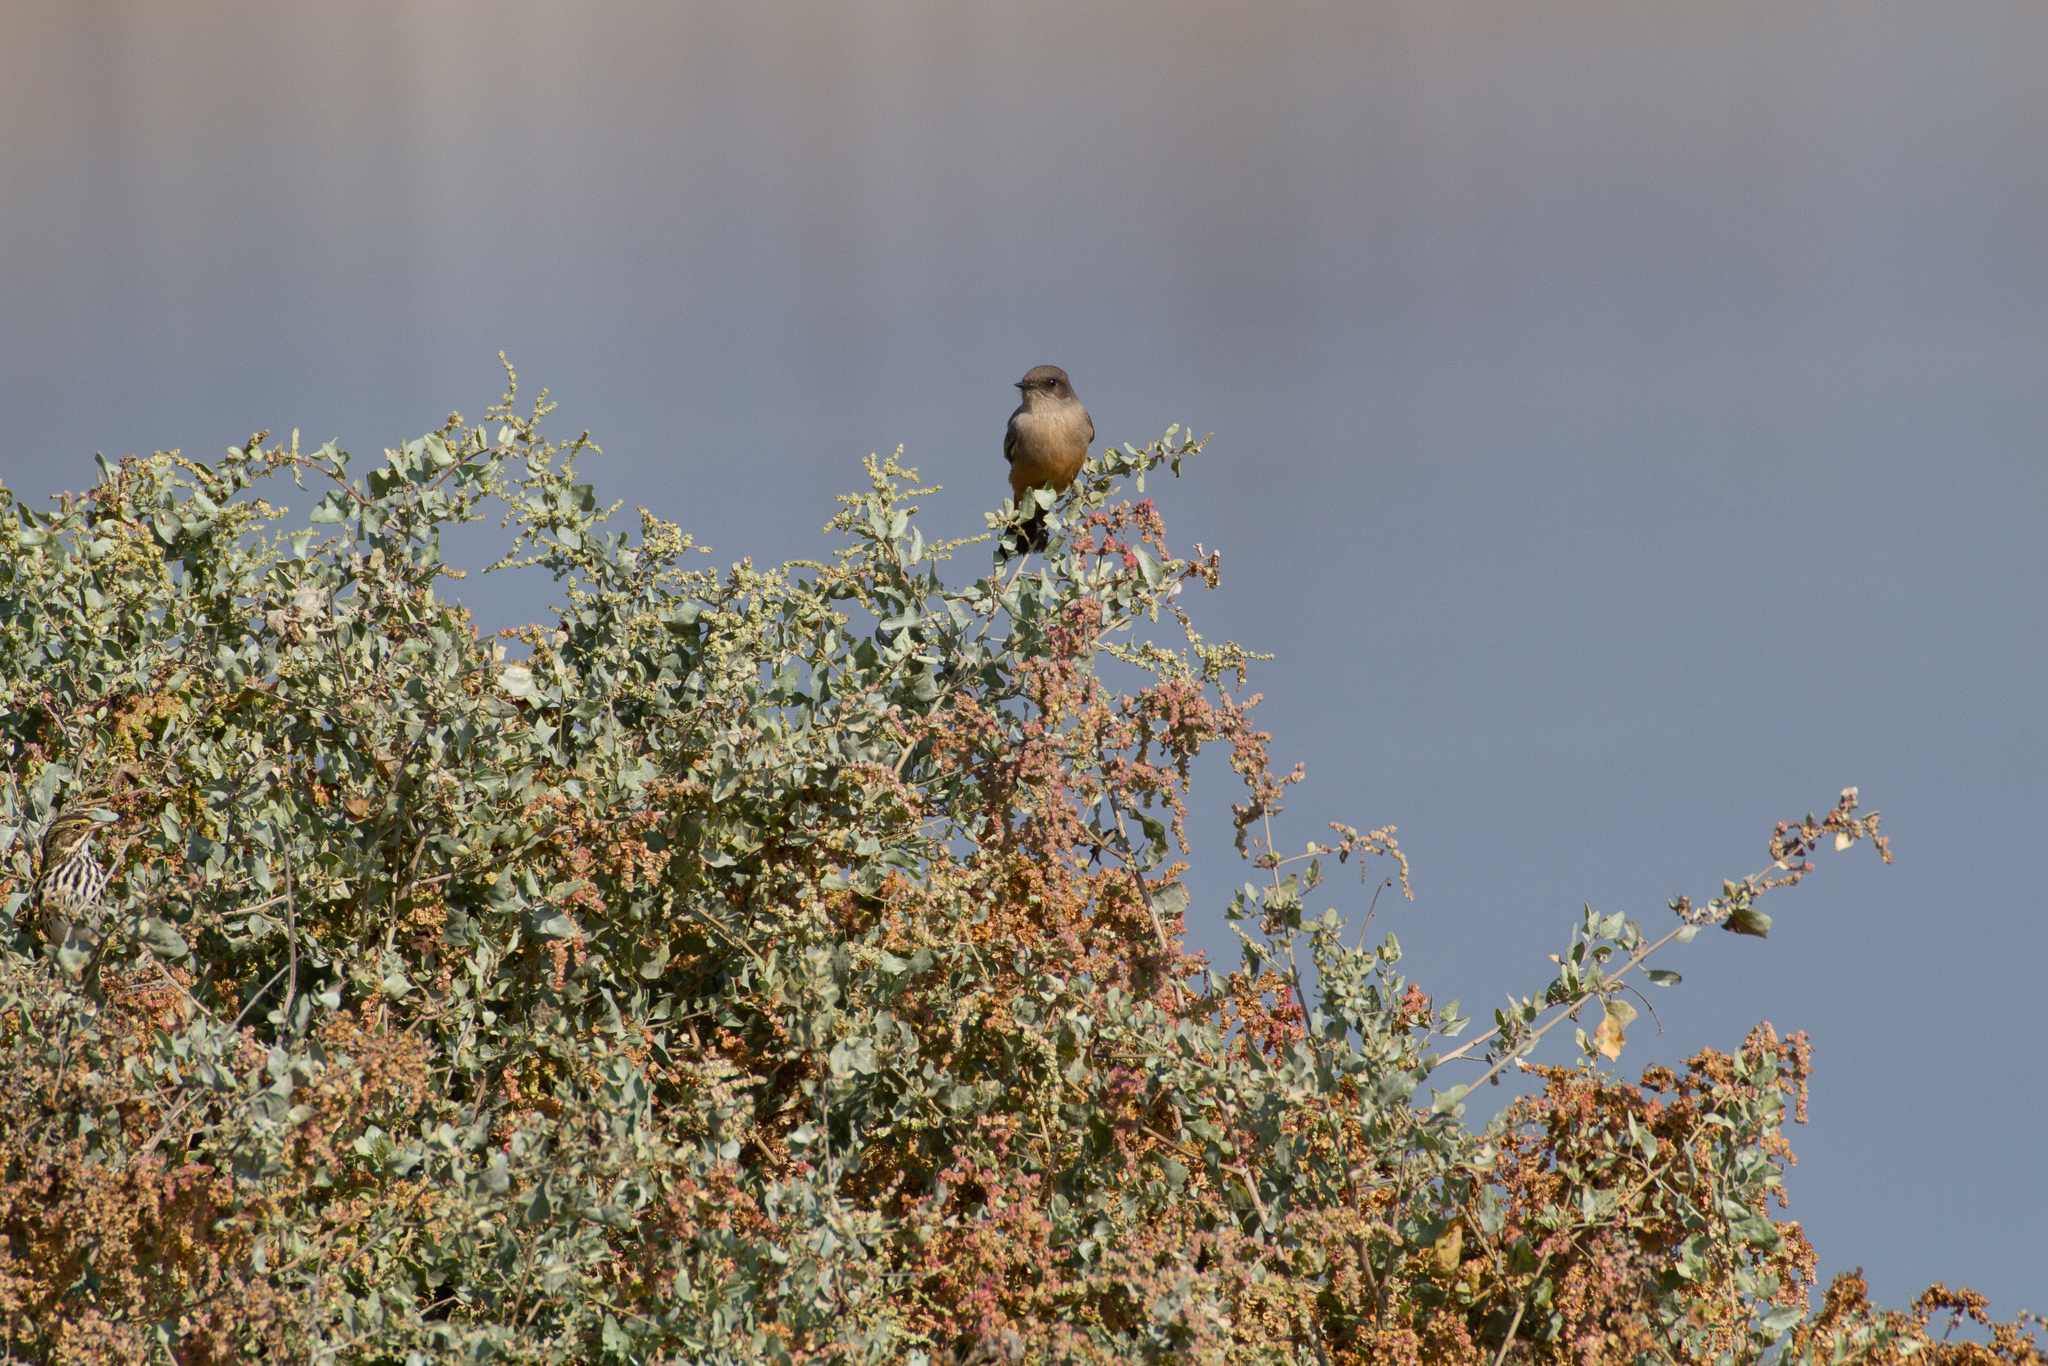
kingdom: Animalia
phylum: Chordata
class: Aves
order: Passeriformes
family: Tyrannidae
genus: Sayornis
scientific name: Sayornis saya
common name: Say's phoebe
